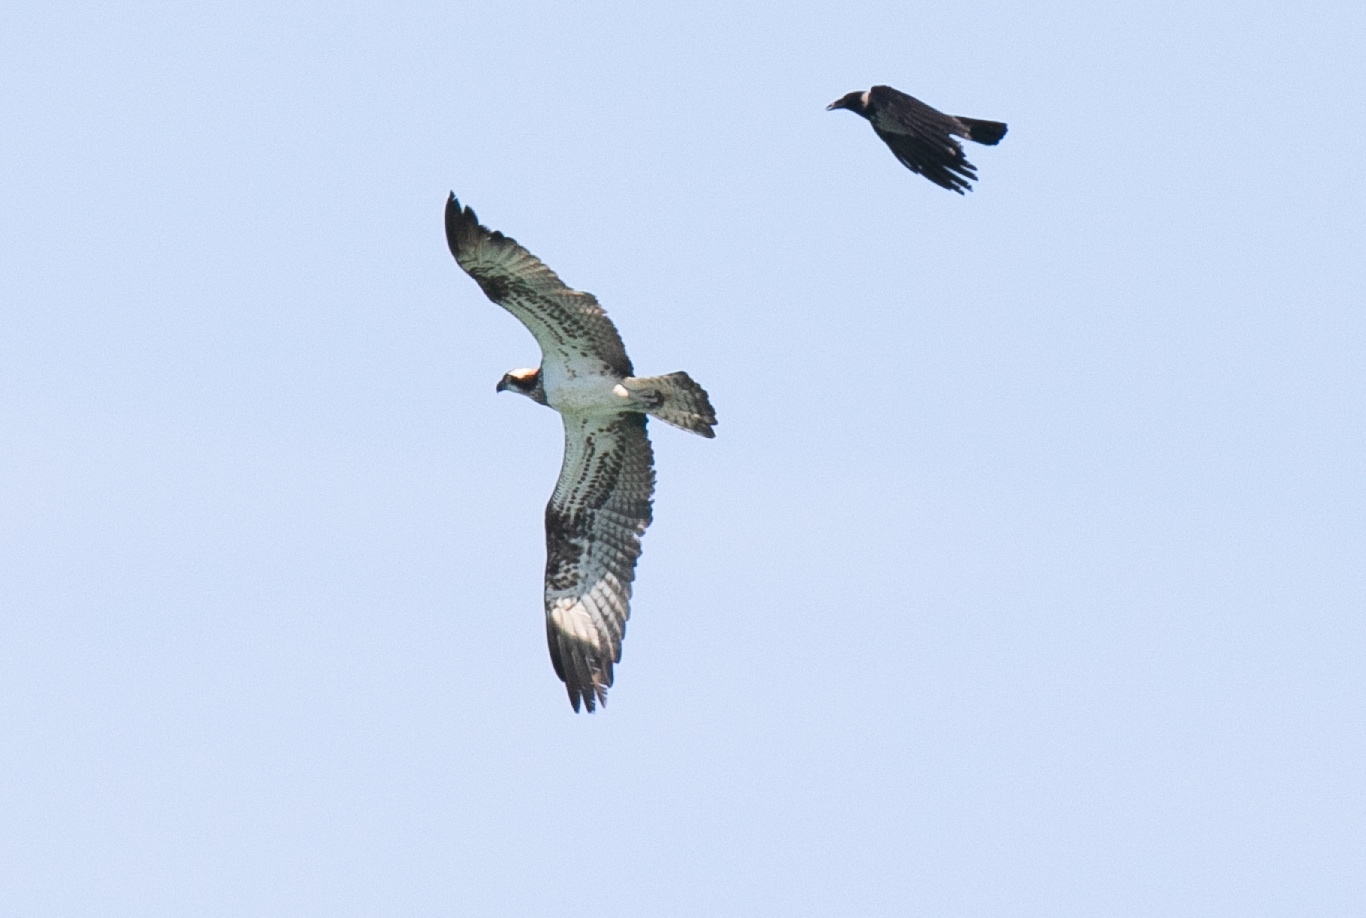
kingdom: Animalia
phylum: Chordata
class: Aves
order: Accipitriformes
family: Pandionidae
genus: Pandion
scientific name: Pandion haliaetus
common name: Osprey
